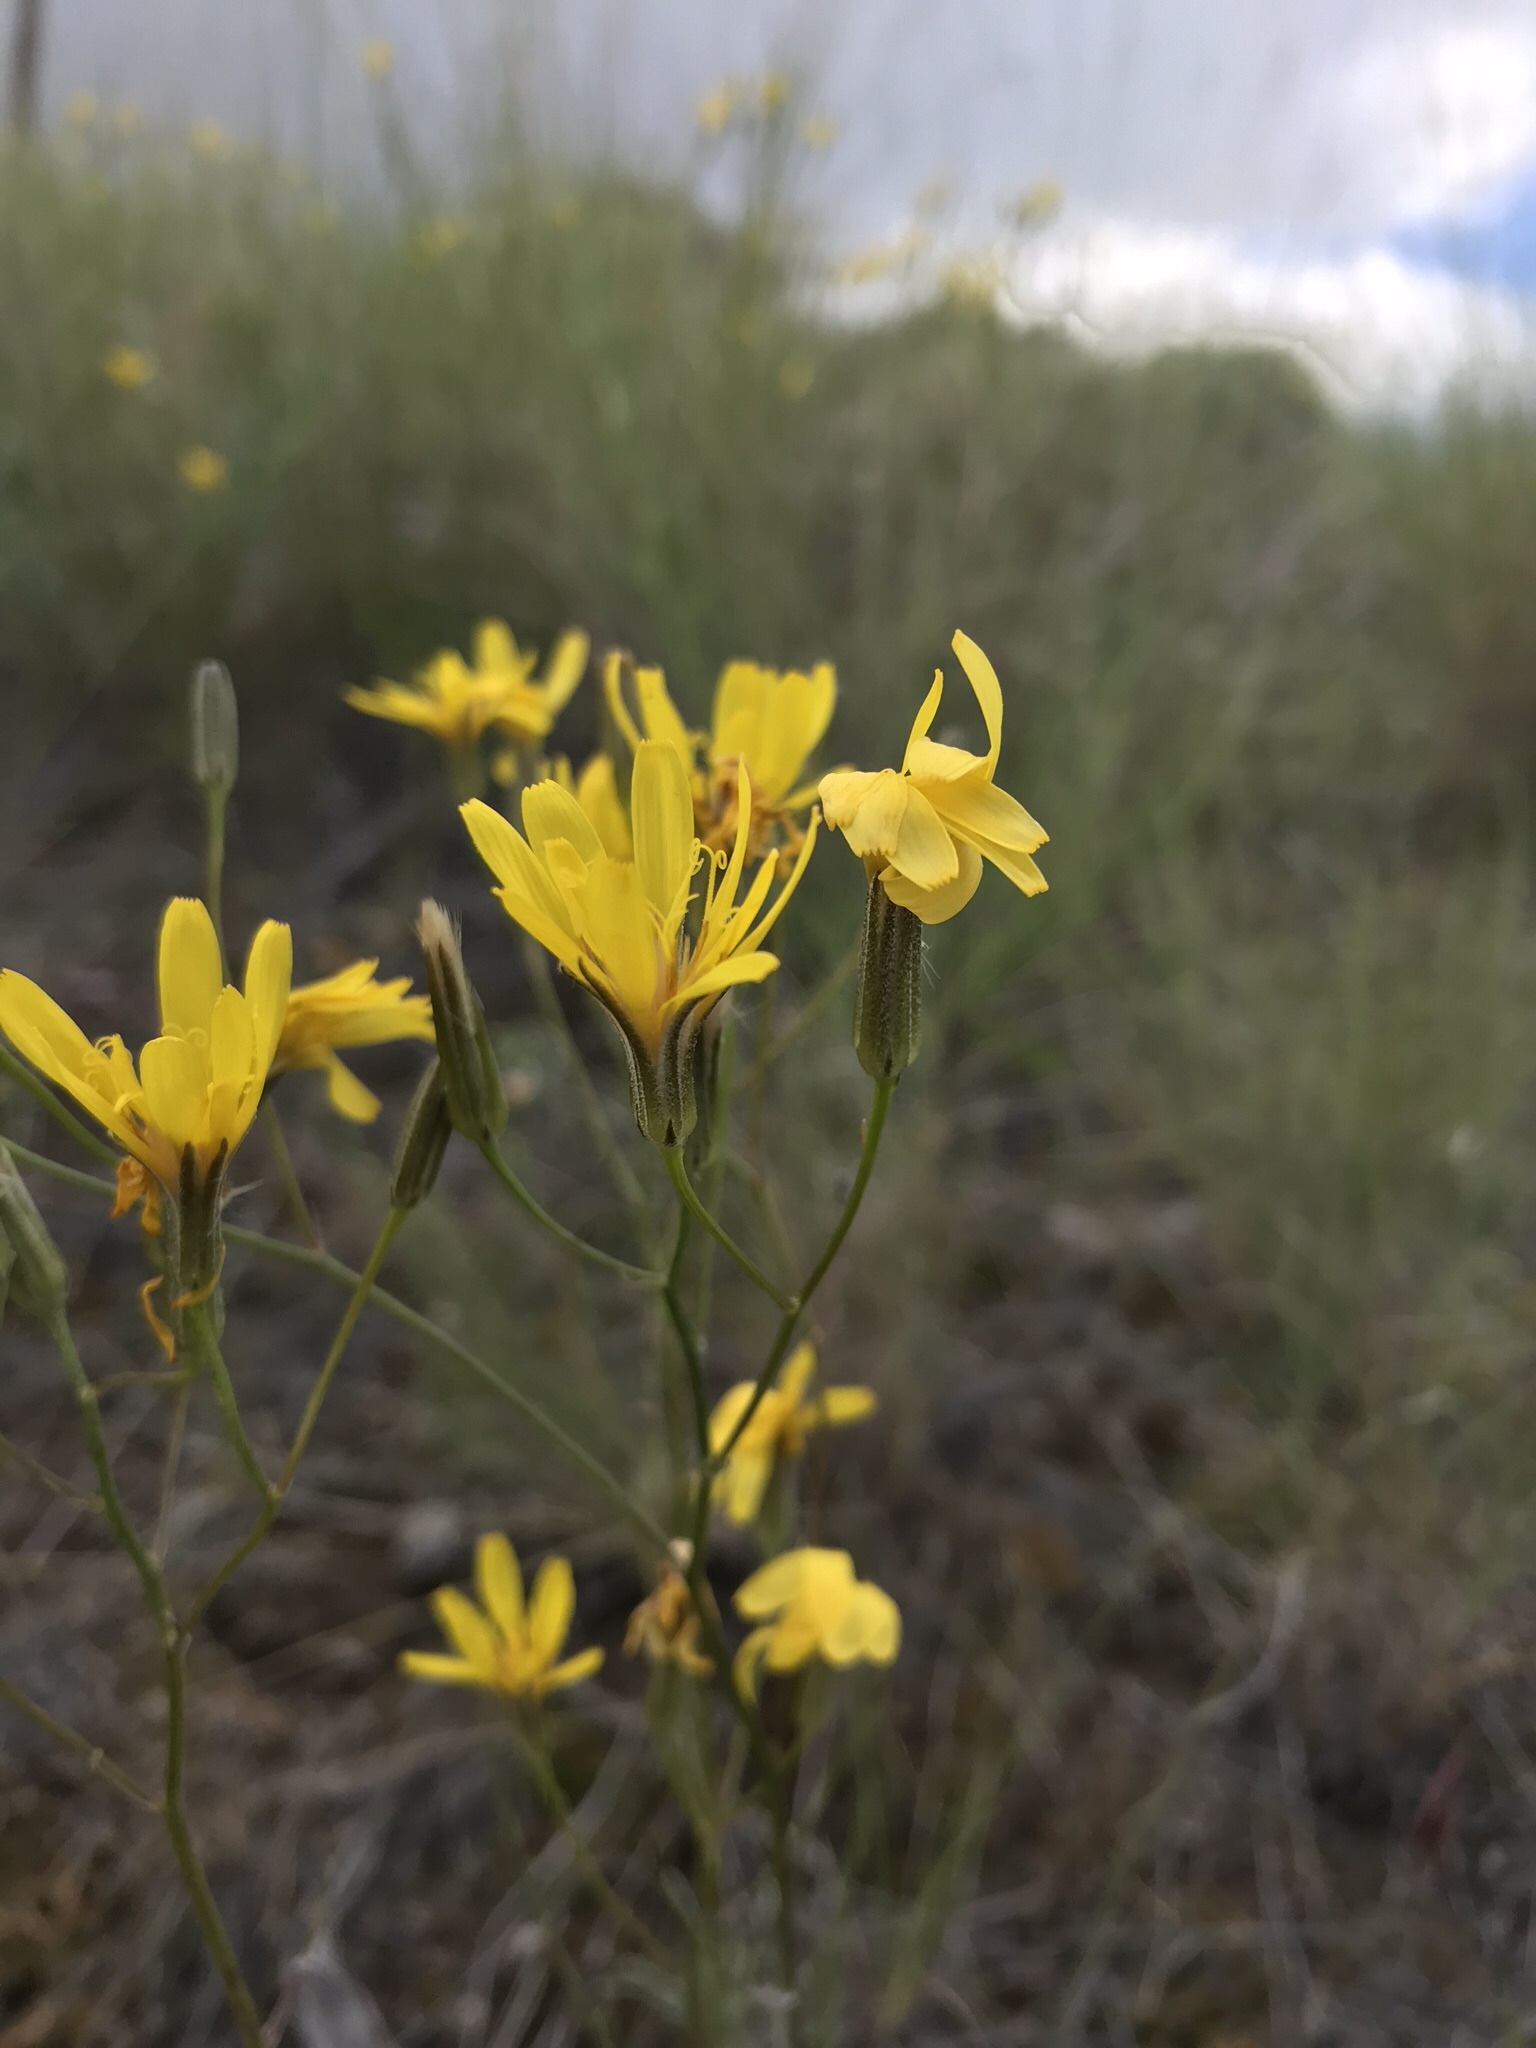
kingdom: Plantae
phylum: Tracheophyta
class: Magnoliopsida
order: Asterales
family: Asteraceae
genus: Crepis
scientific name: Crepis atribarba
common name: Dark hawk's-beard
